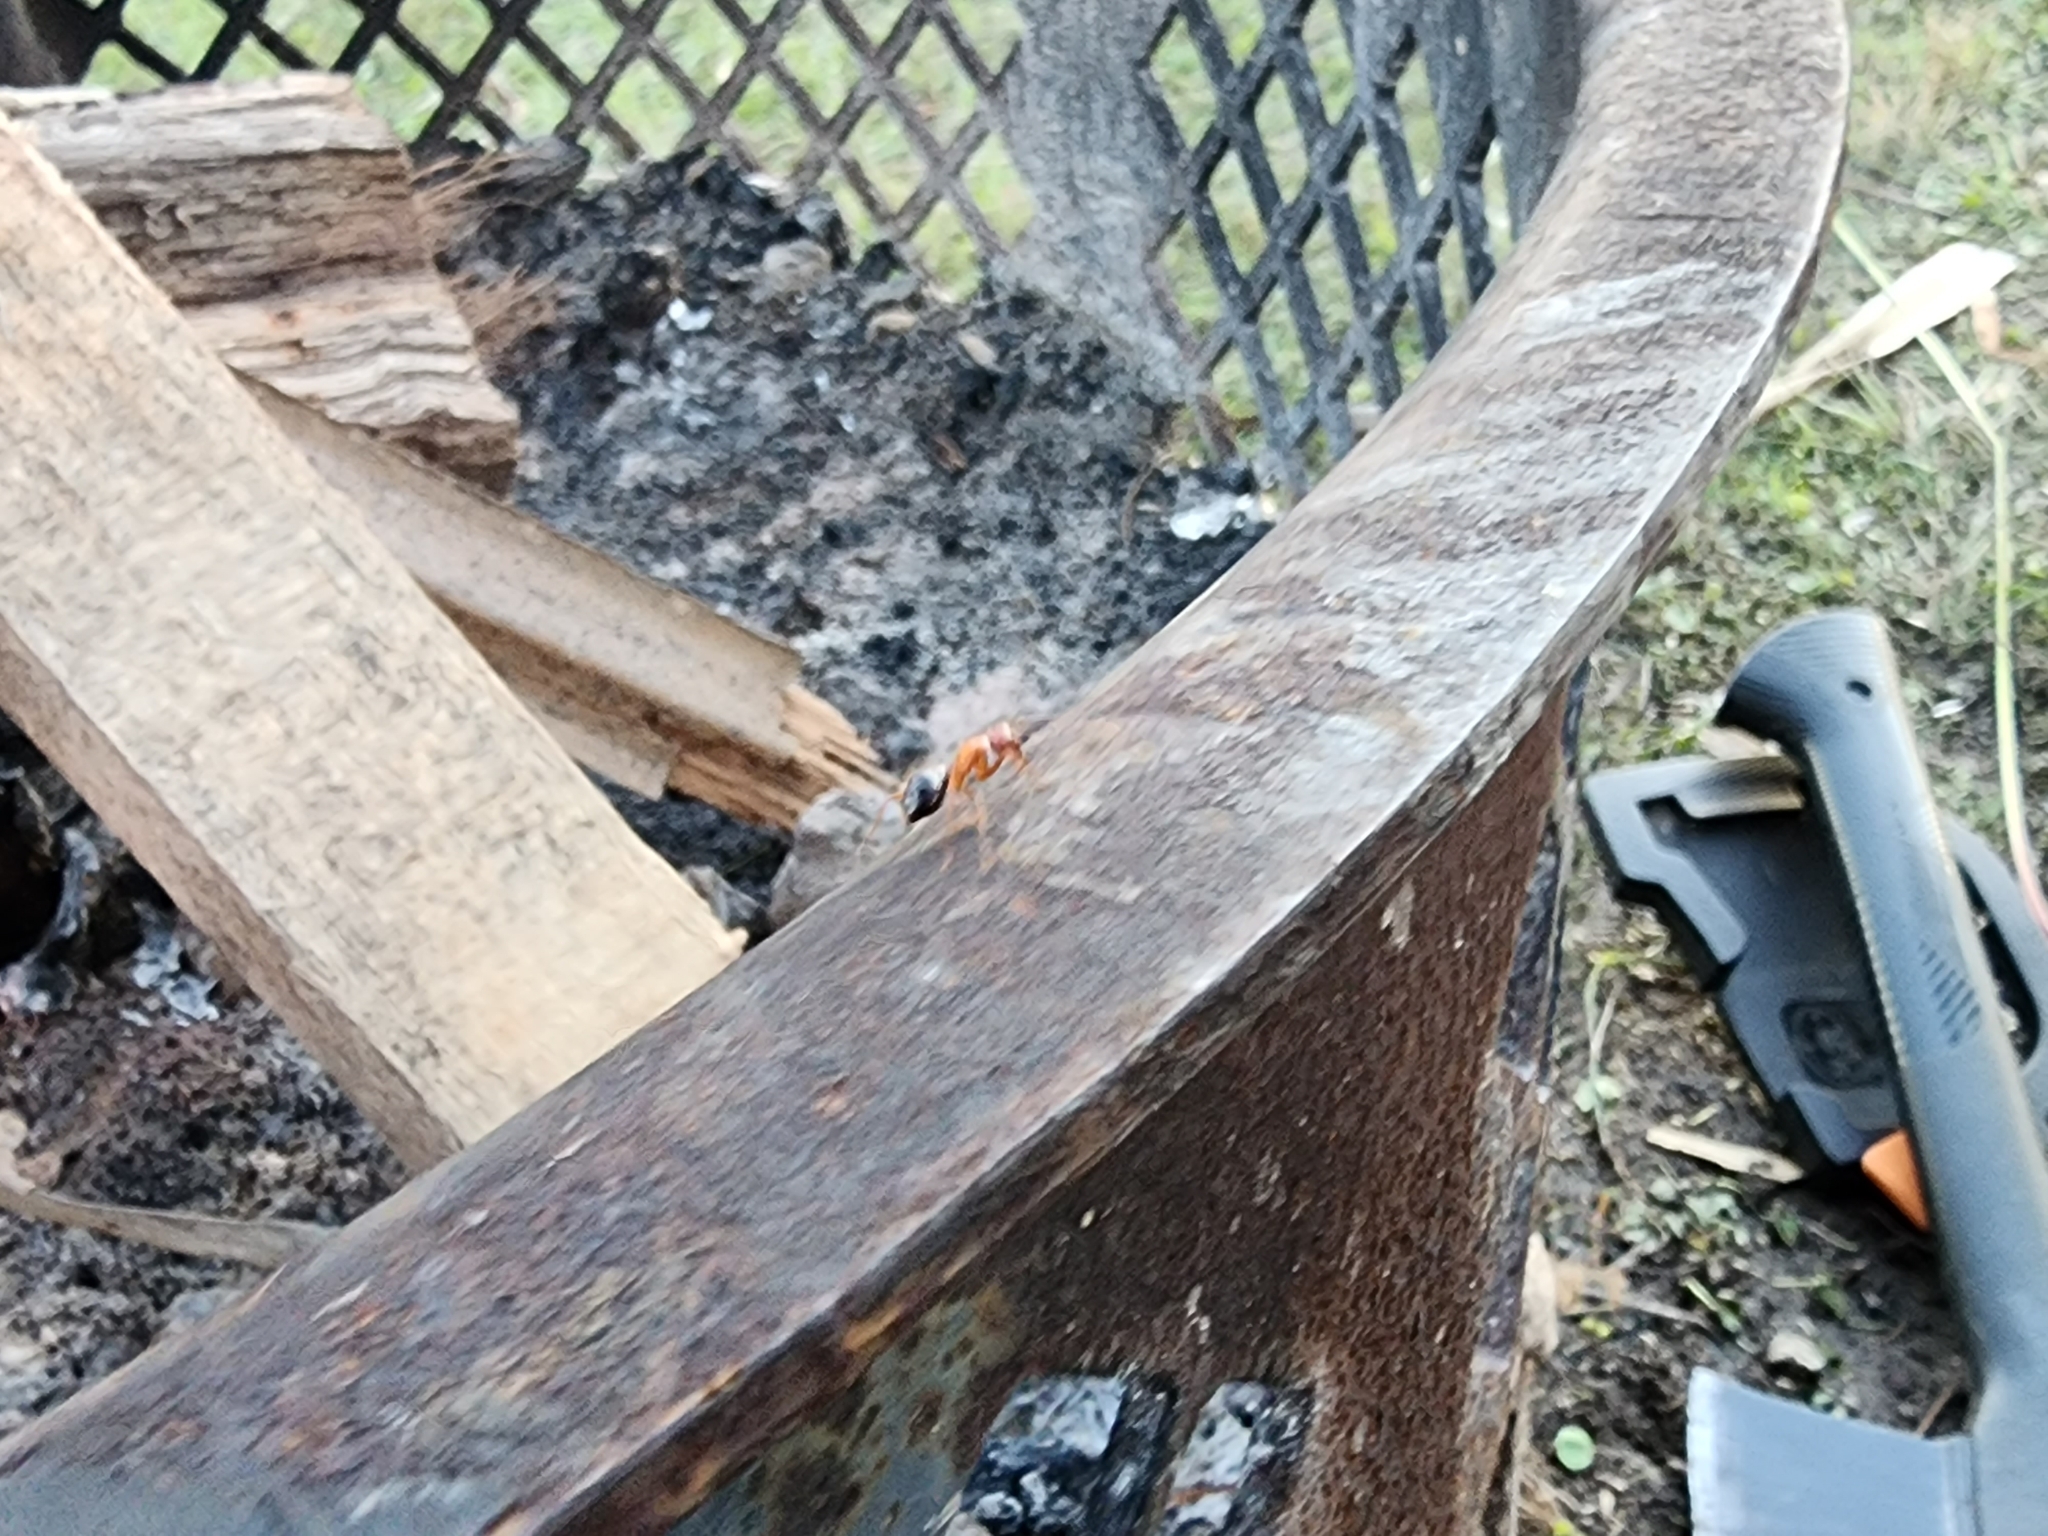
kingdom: Animalia
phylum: Arthropoda
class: Insecta
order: Hymenoptera
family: Formicidae
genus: Camponotus
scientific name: Camponotus floridanus
